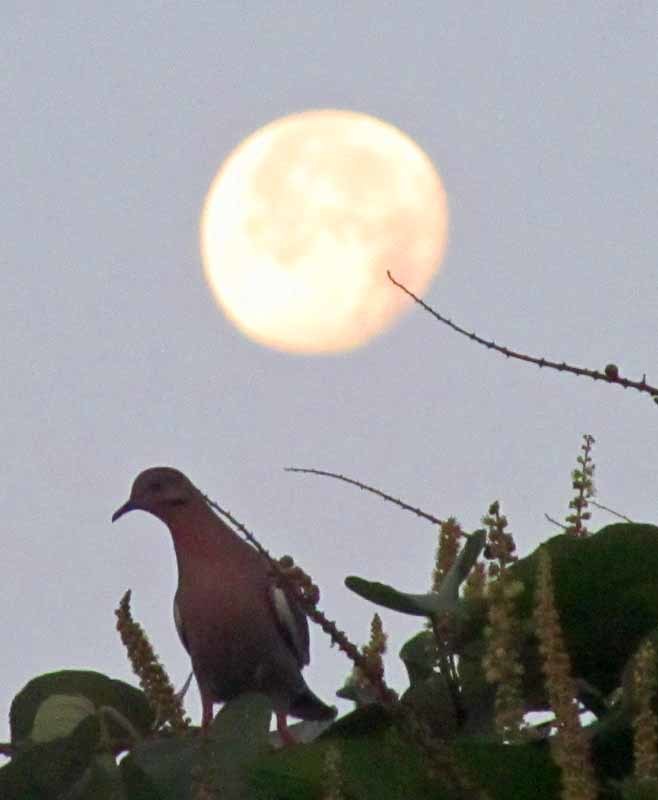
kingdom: Animalia
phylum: Chordata
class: Aves
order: Columbiformes
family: Columbidae
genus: Zenaida
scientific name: Zenaida asiatica
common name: White-winged dove
